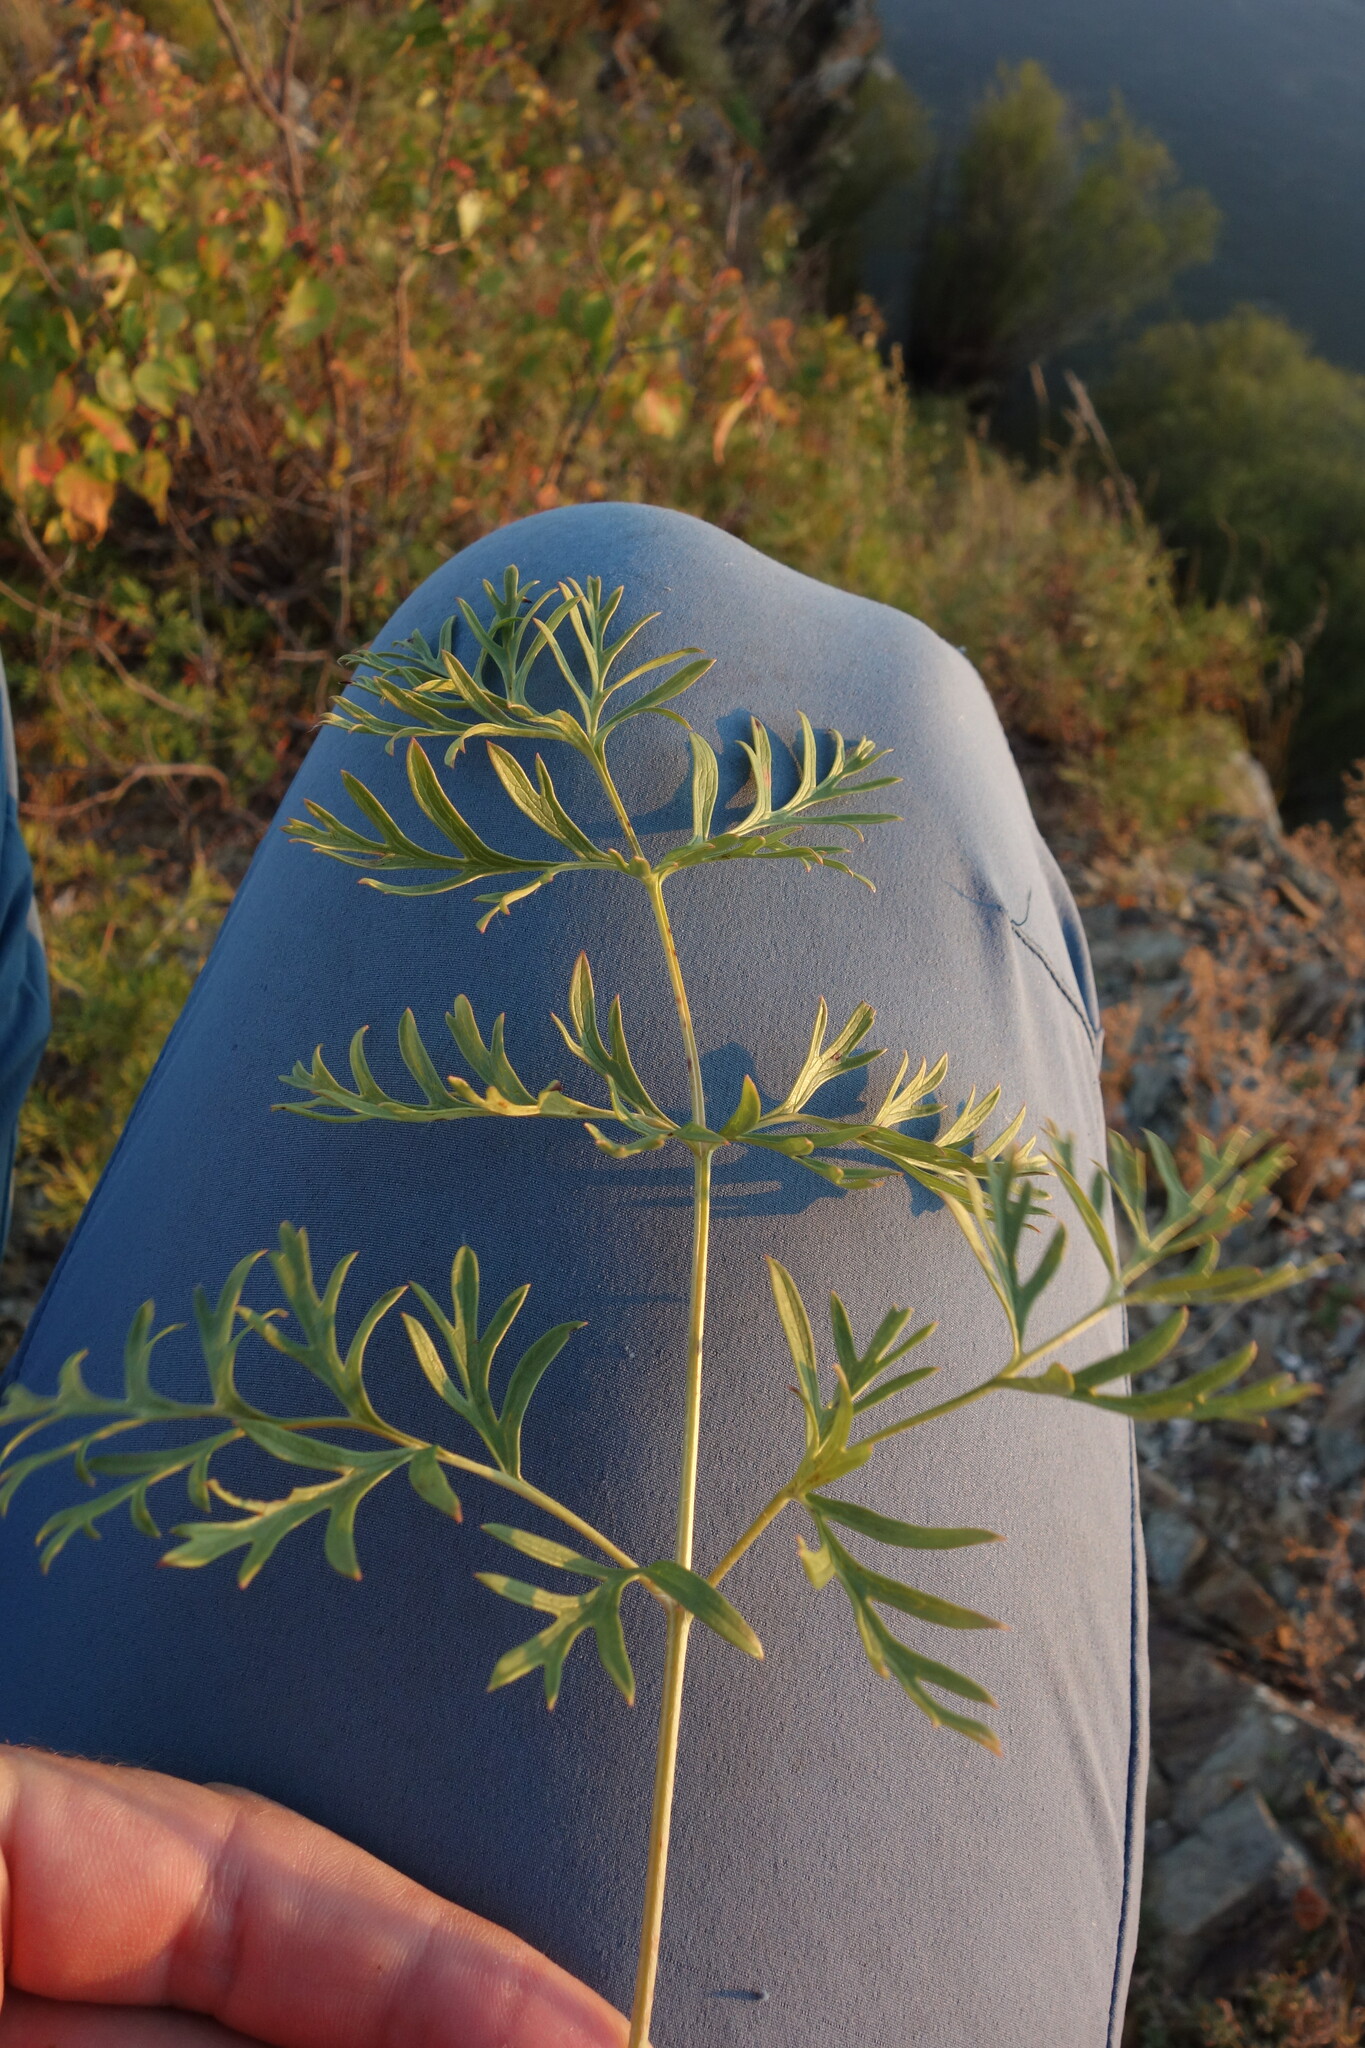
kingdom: Plantae
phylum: Tracheophyta
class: Magnoliopsida
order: Ranunculales
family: Ranunculaceae
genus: Pulsatilla
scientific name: Pulsatilla turczaninovii
